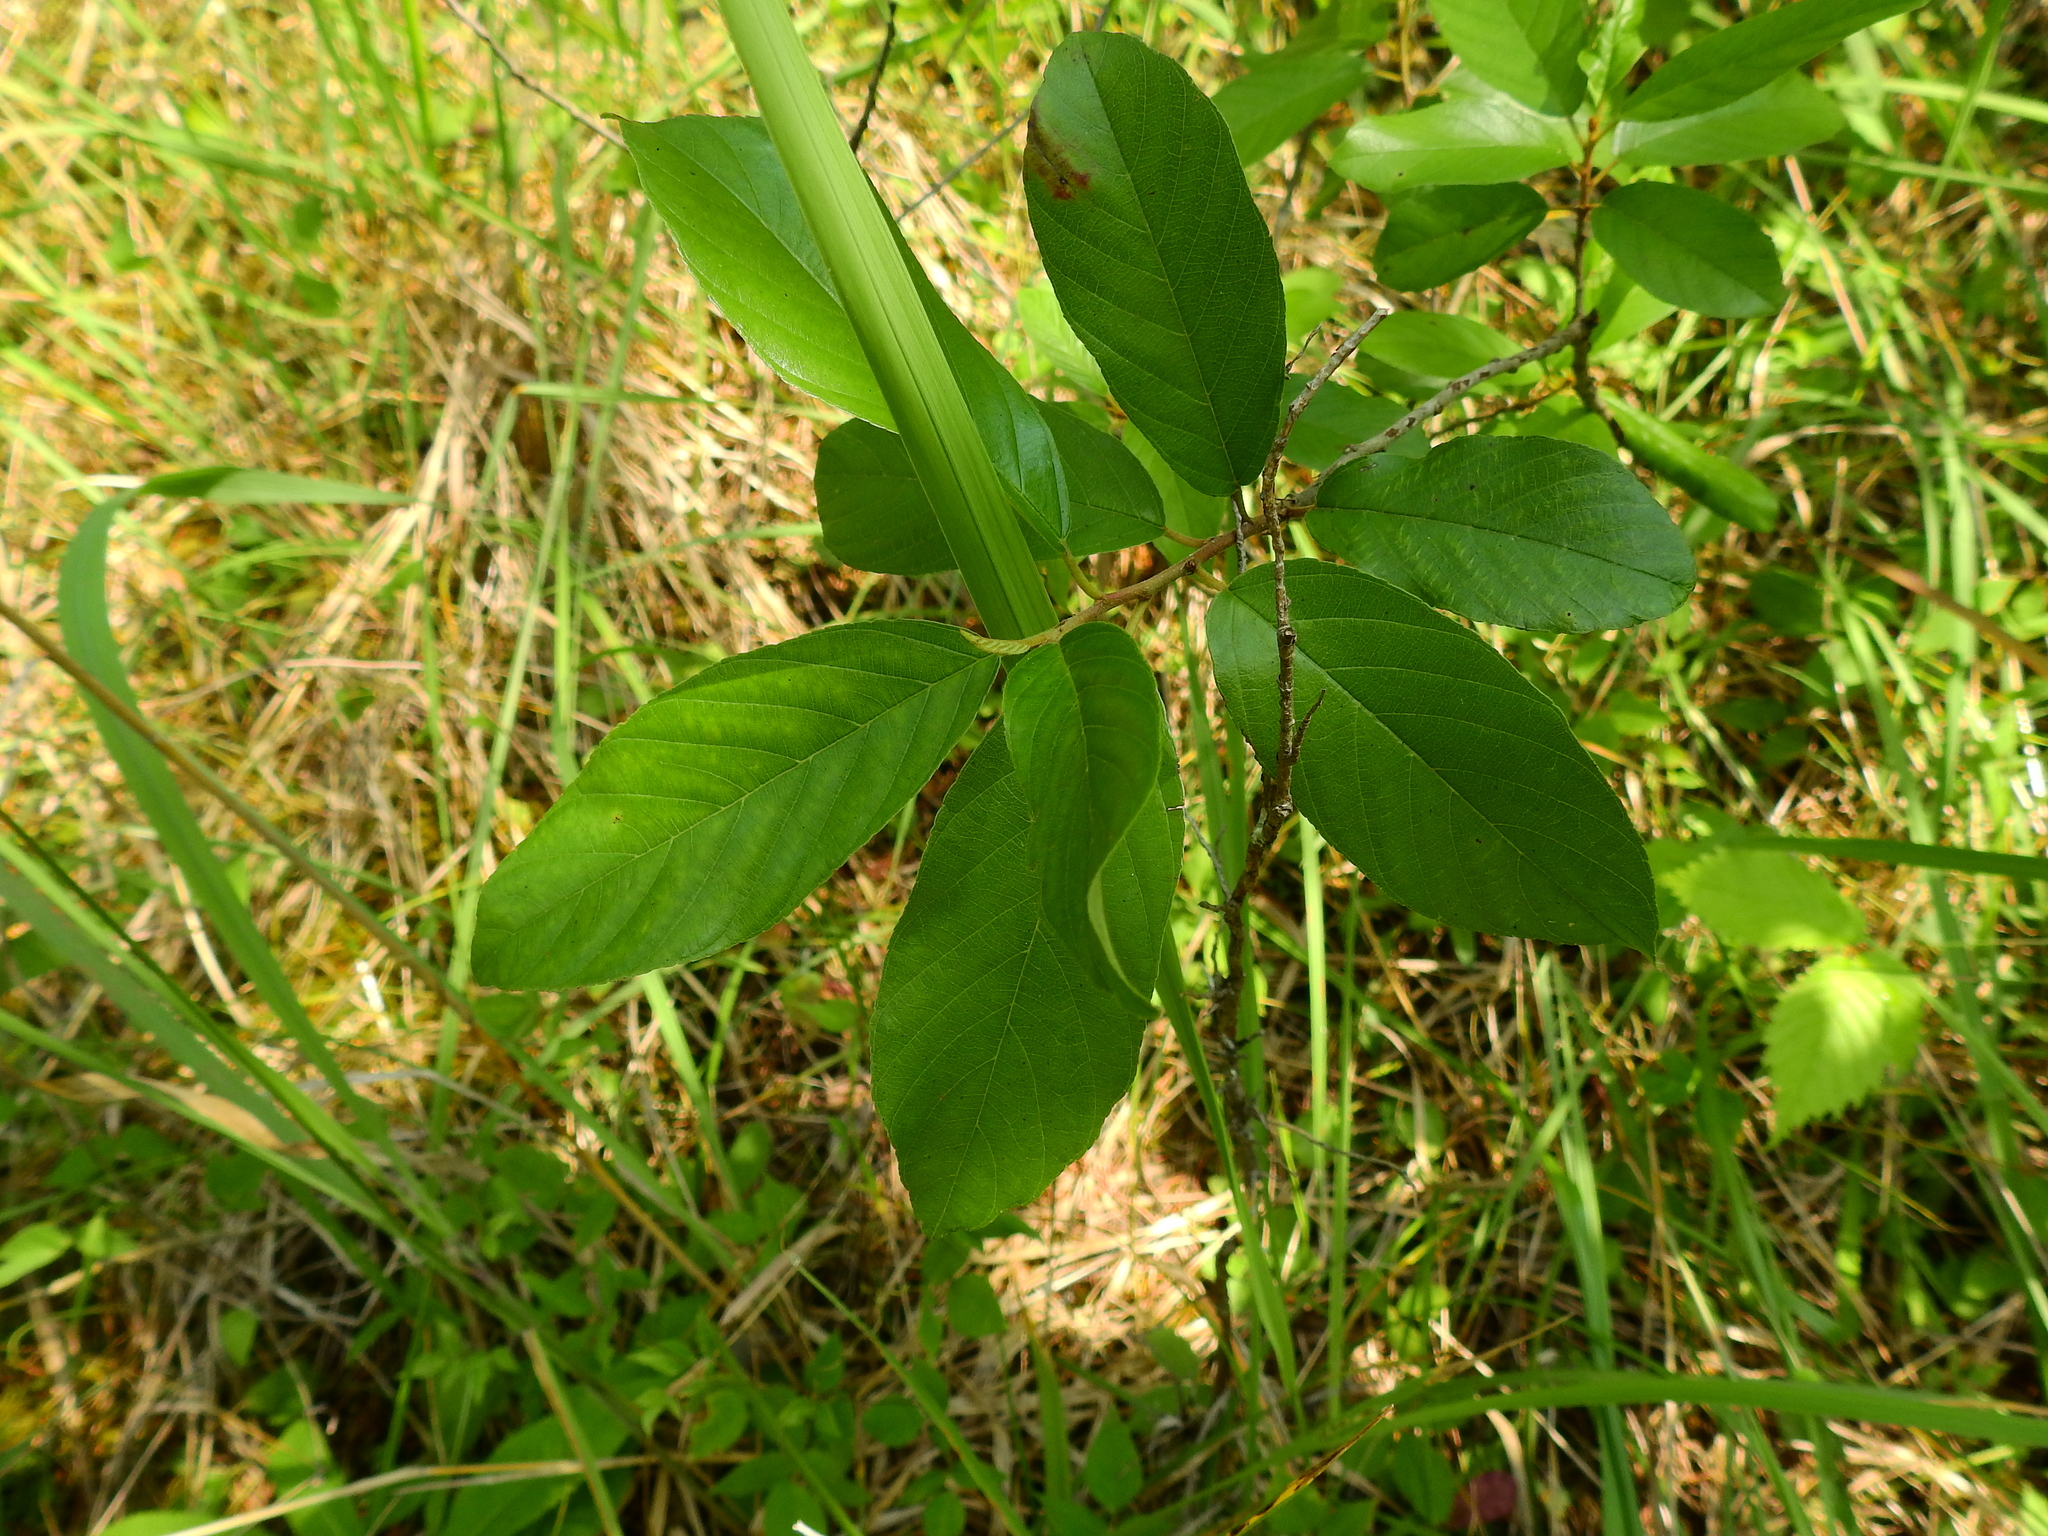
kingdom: Plantae
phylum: Tracheophyta
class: Magnoliopsida
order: Rosales
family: Rhamnaceae
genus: Frangula
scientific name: Frangula caroliniana
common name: Carolina buckthorn
